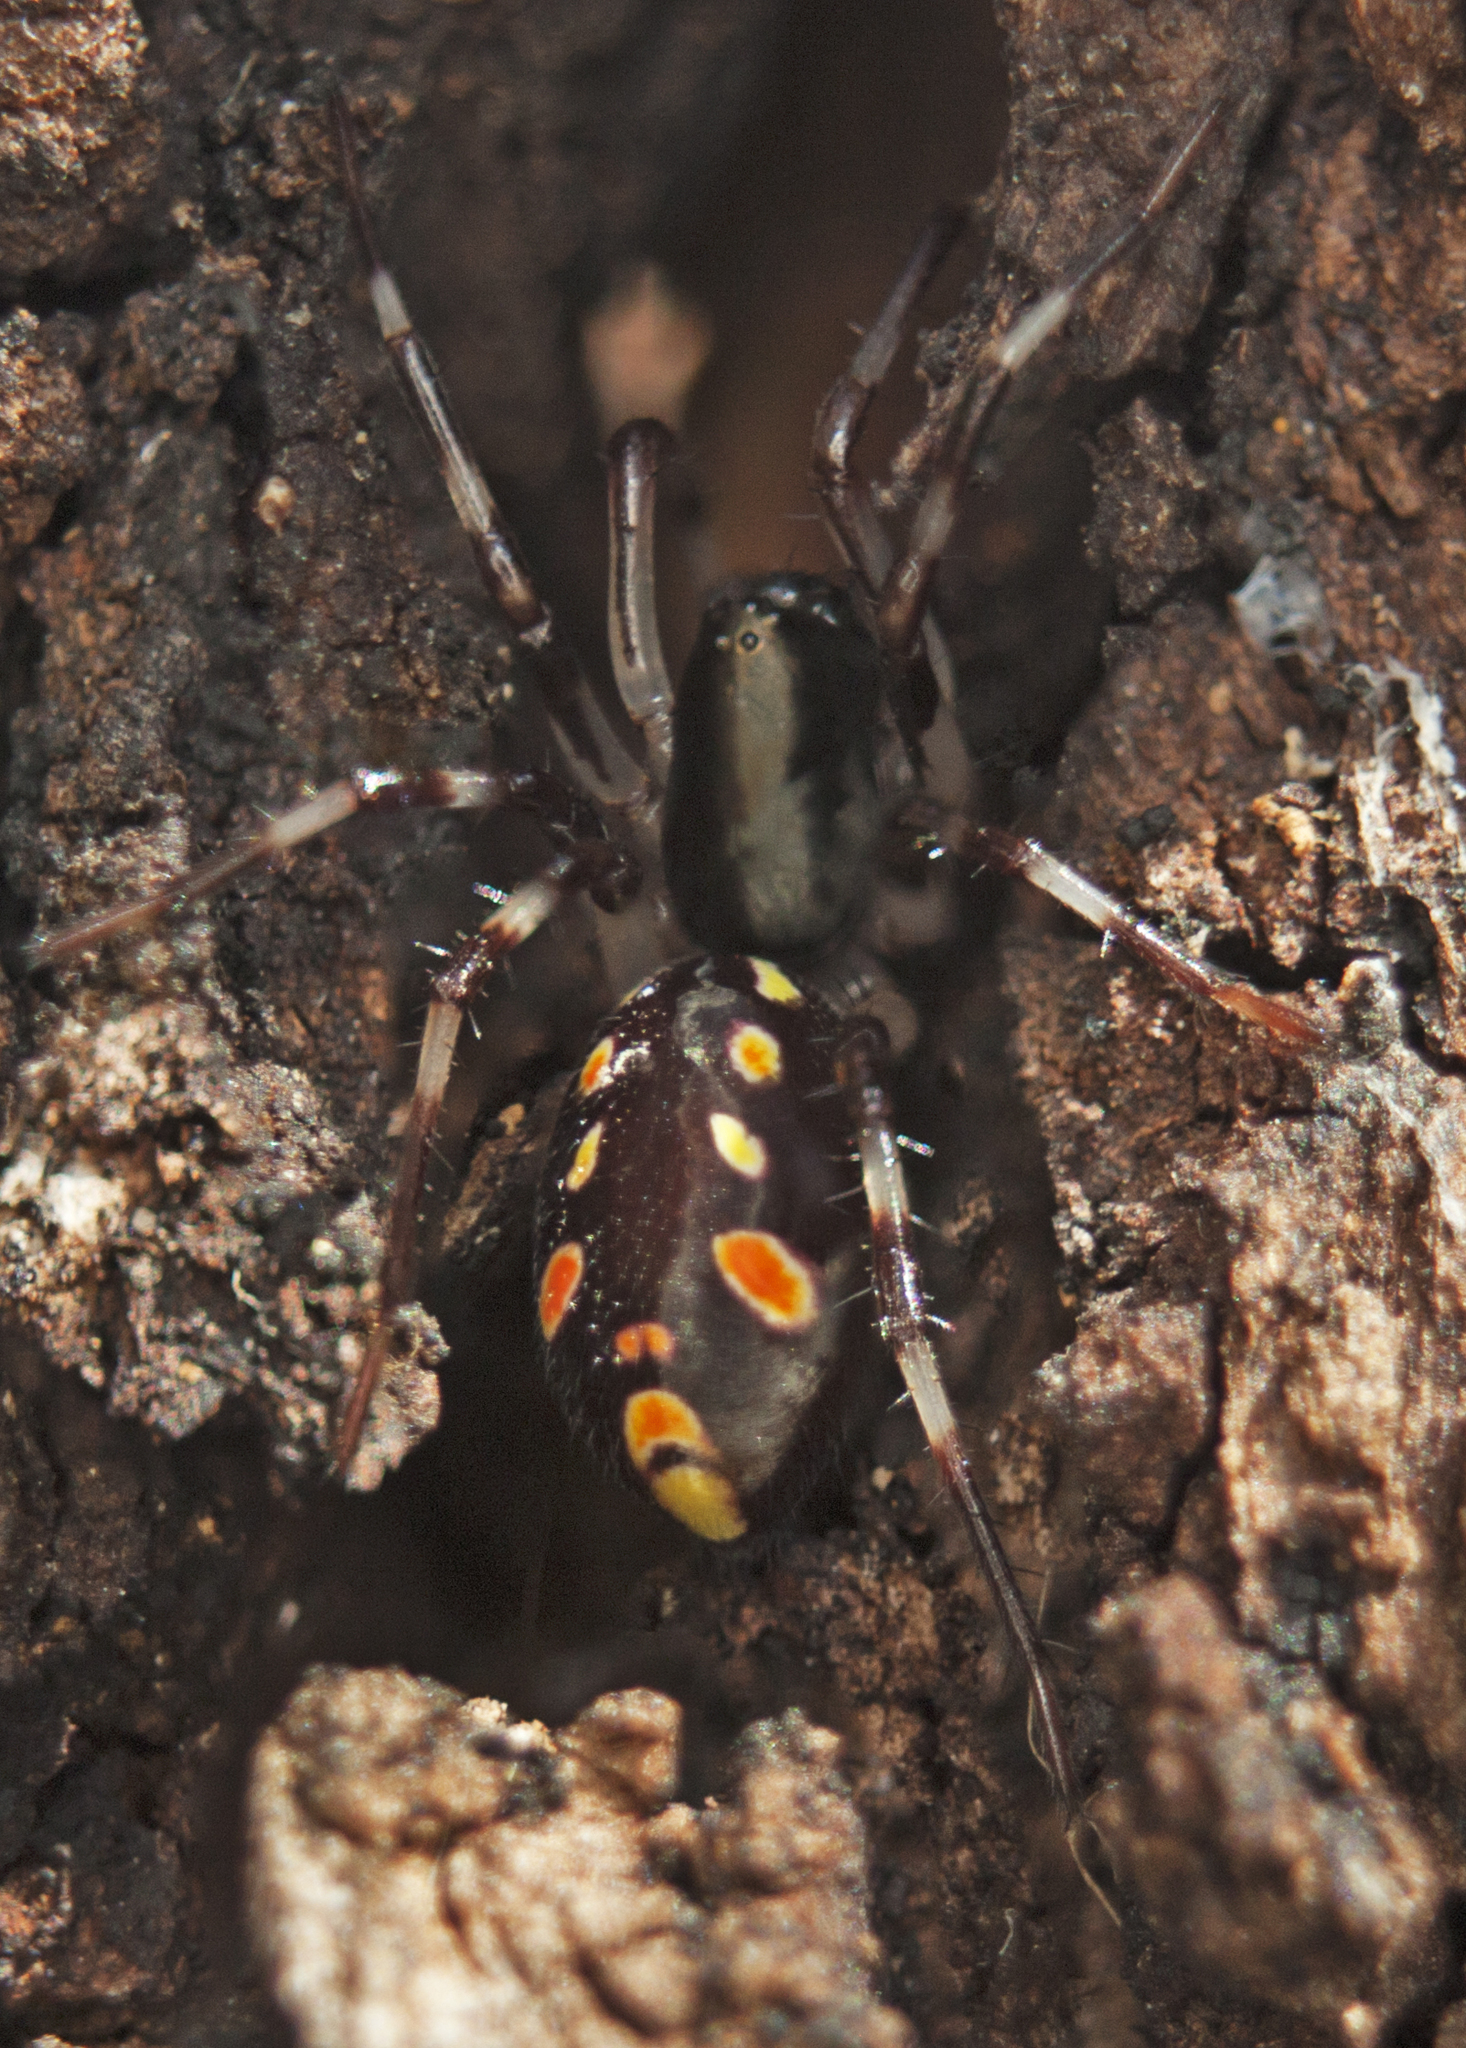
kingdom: Animalia
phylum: Arthropoda
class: Arachnida
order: Araneae
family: Zodariidae
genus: Subasteron
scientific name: Subasteron daviesae
